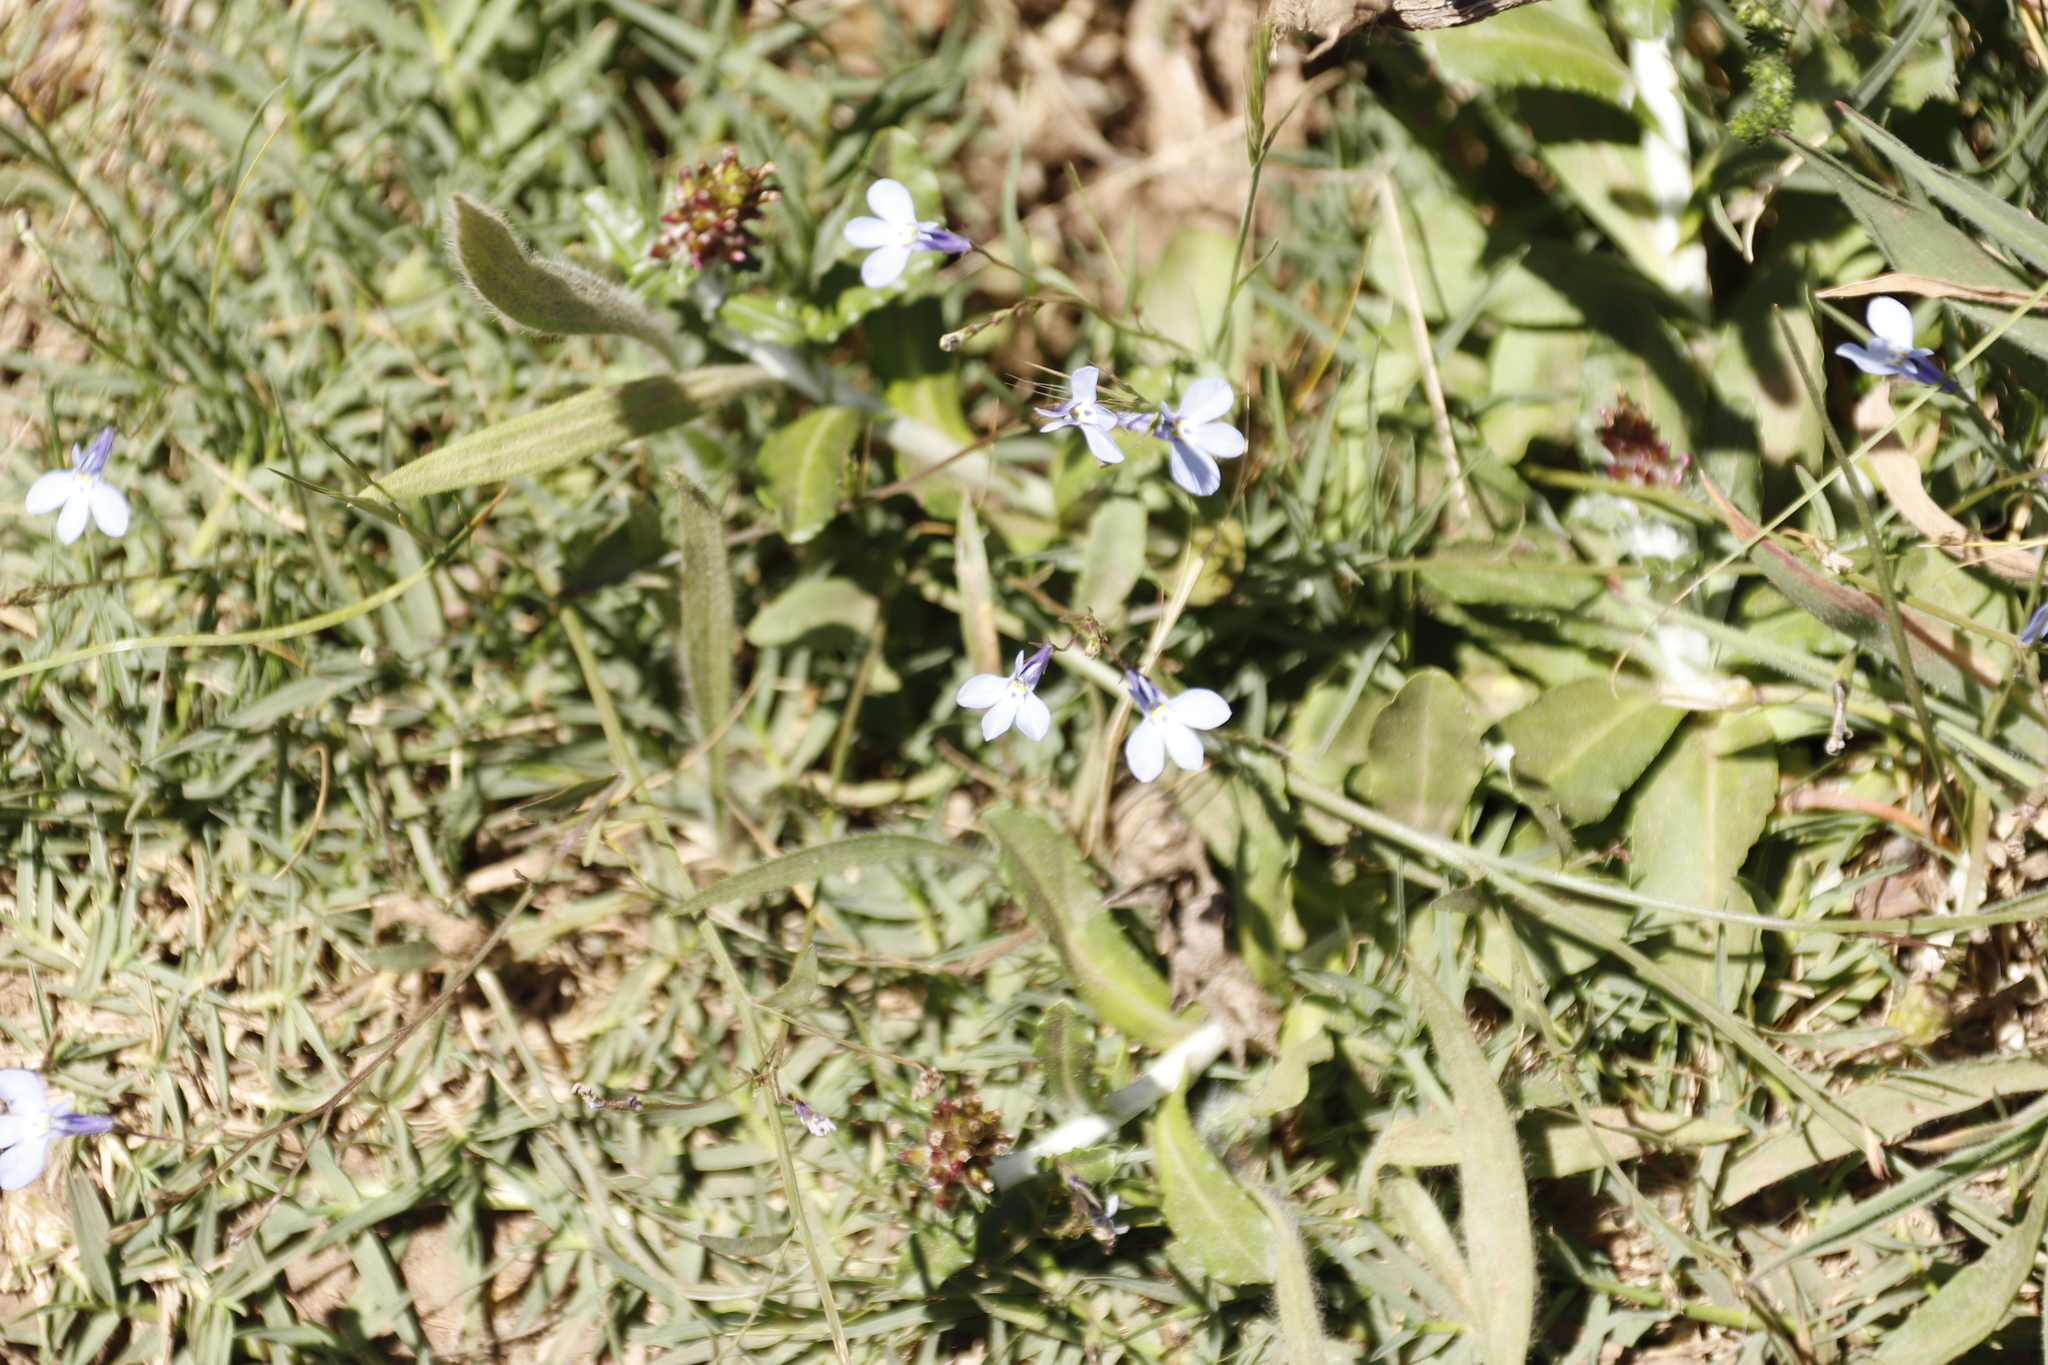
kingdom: Plantae
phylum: Tracheophyta
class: Magnoliopsida
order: Asterales
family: Campanulaceae
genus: Lobelia
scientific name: Lobelia erinus
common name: Edging lobelia
